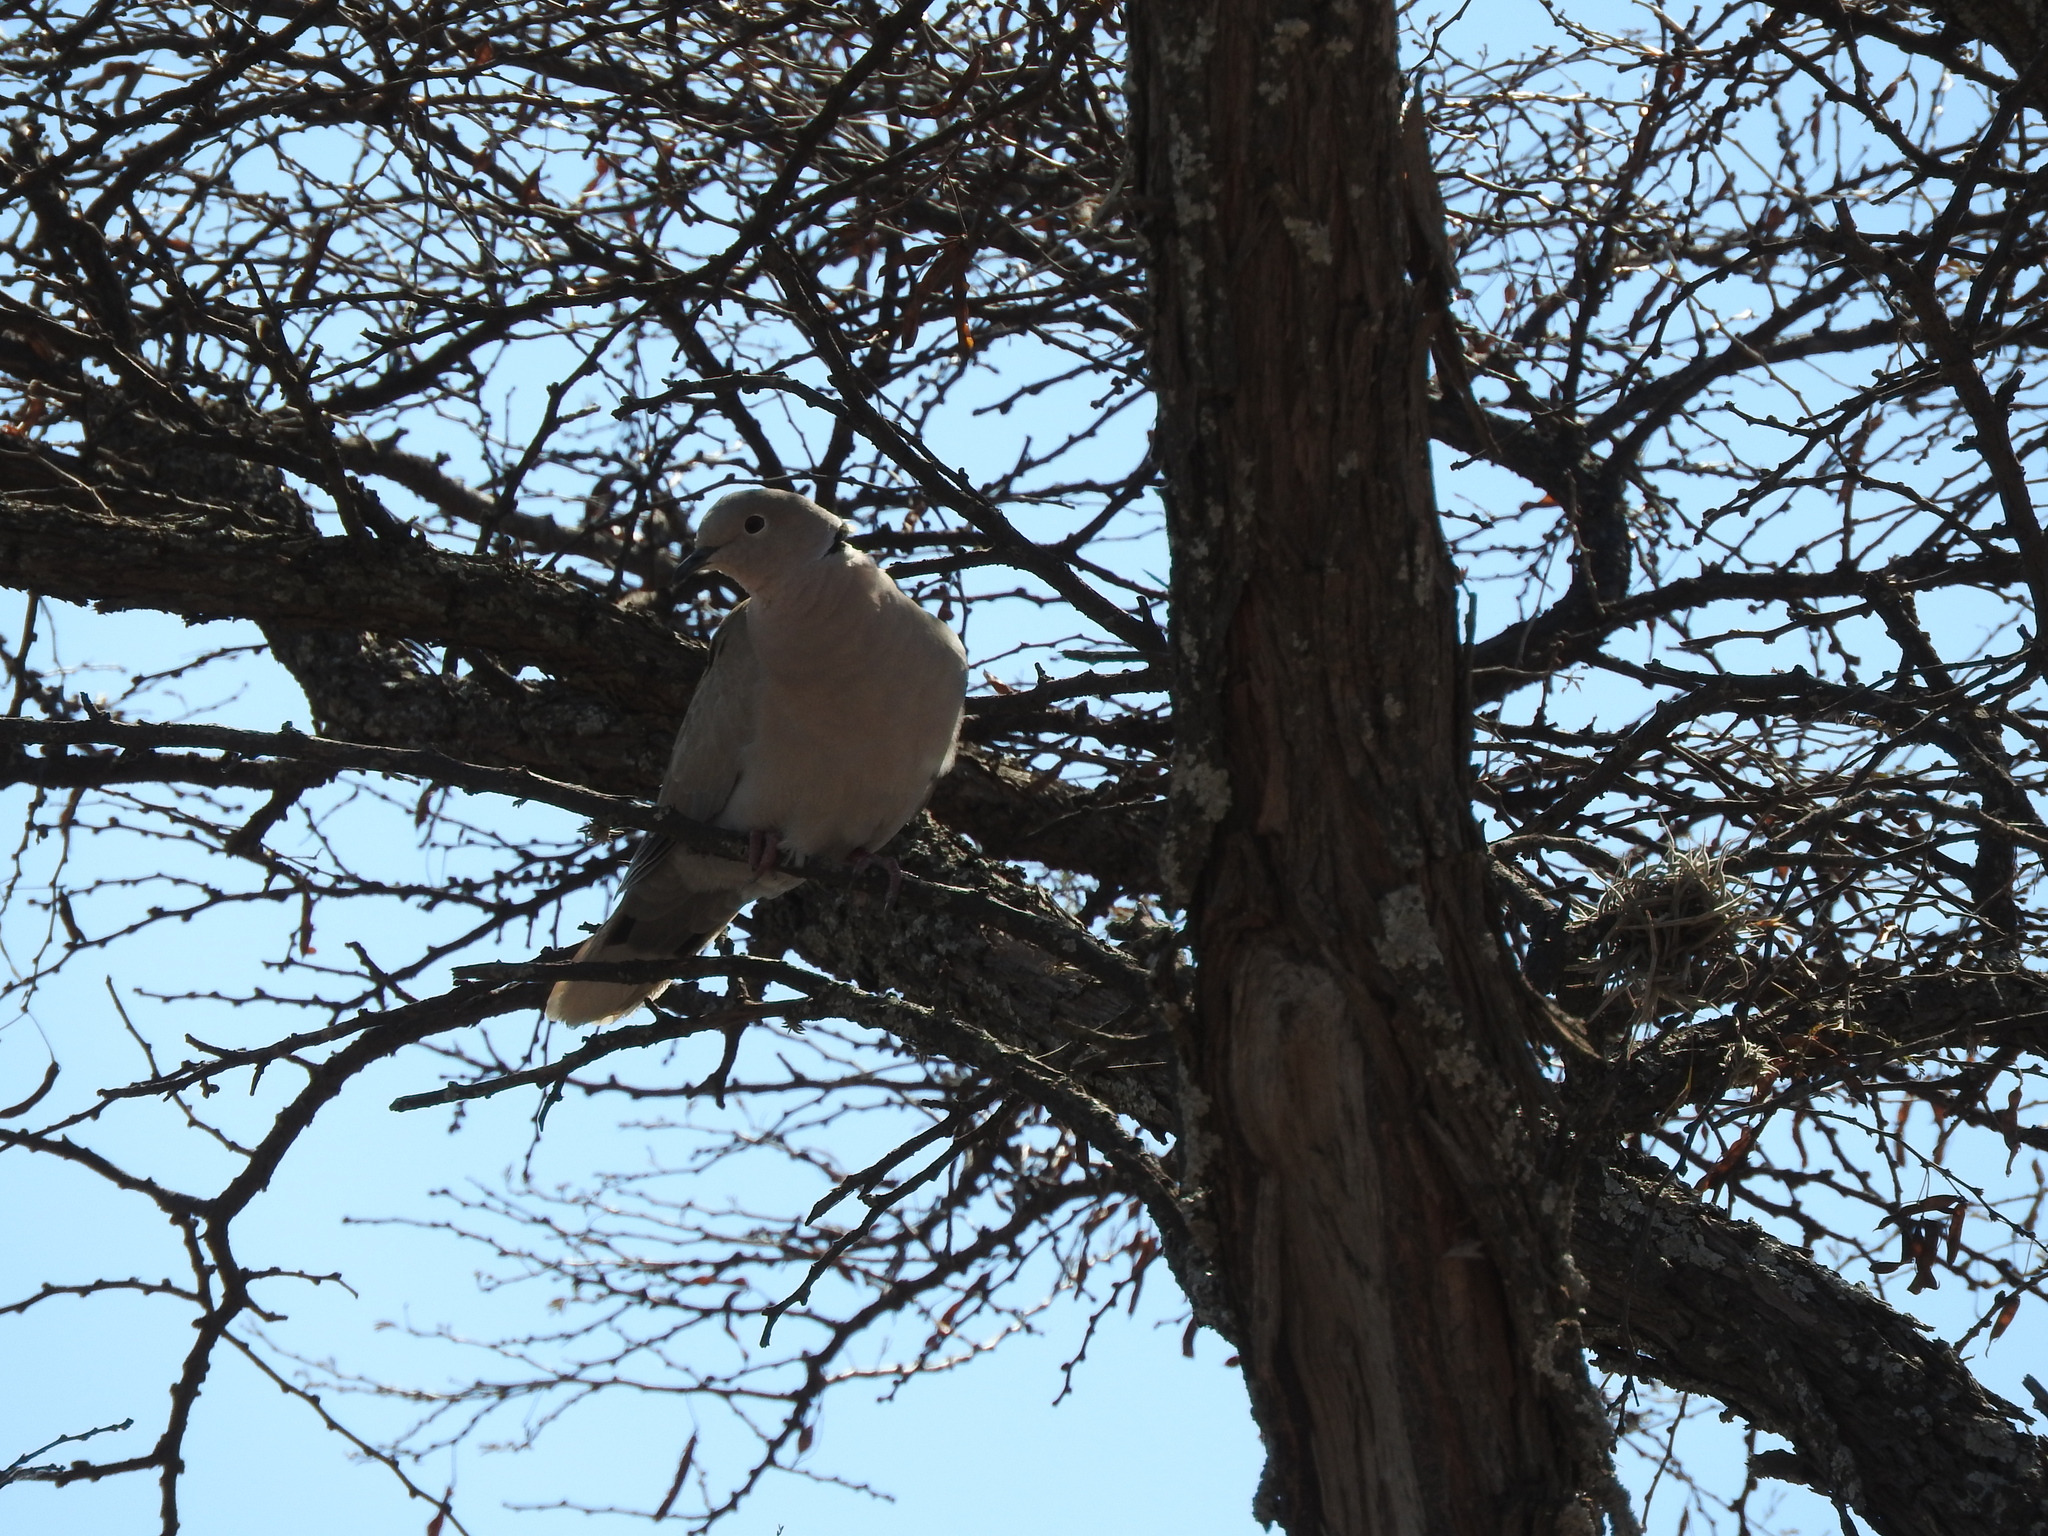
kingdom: Animalia
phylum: Chordata
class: Aves
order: Columbiformes
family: Columbidae
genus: Streptopelia
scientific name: Streptopelia decaocto
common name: Eurasian collared dove
